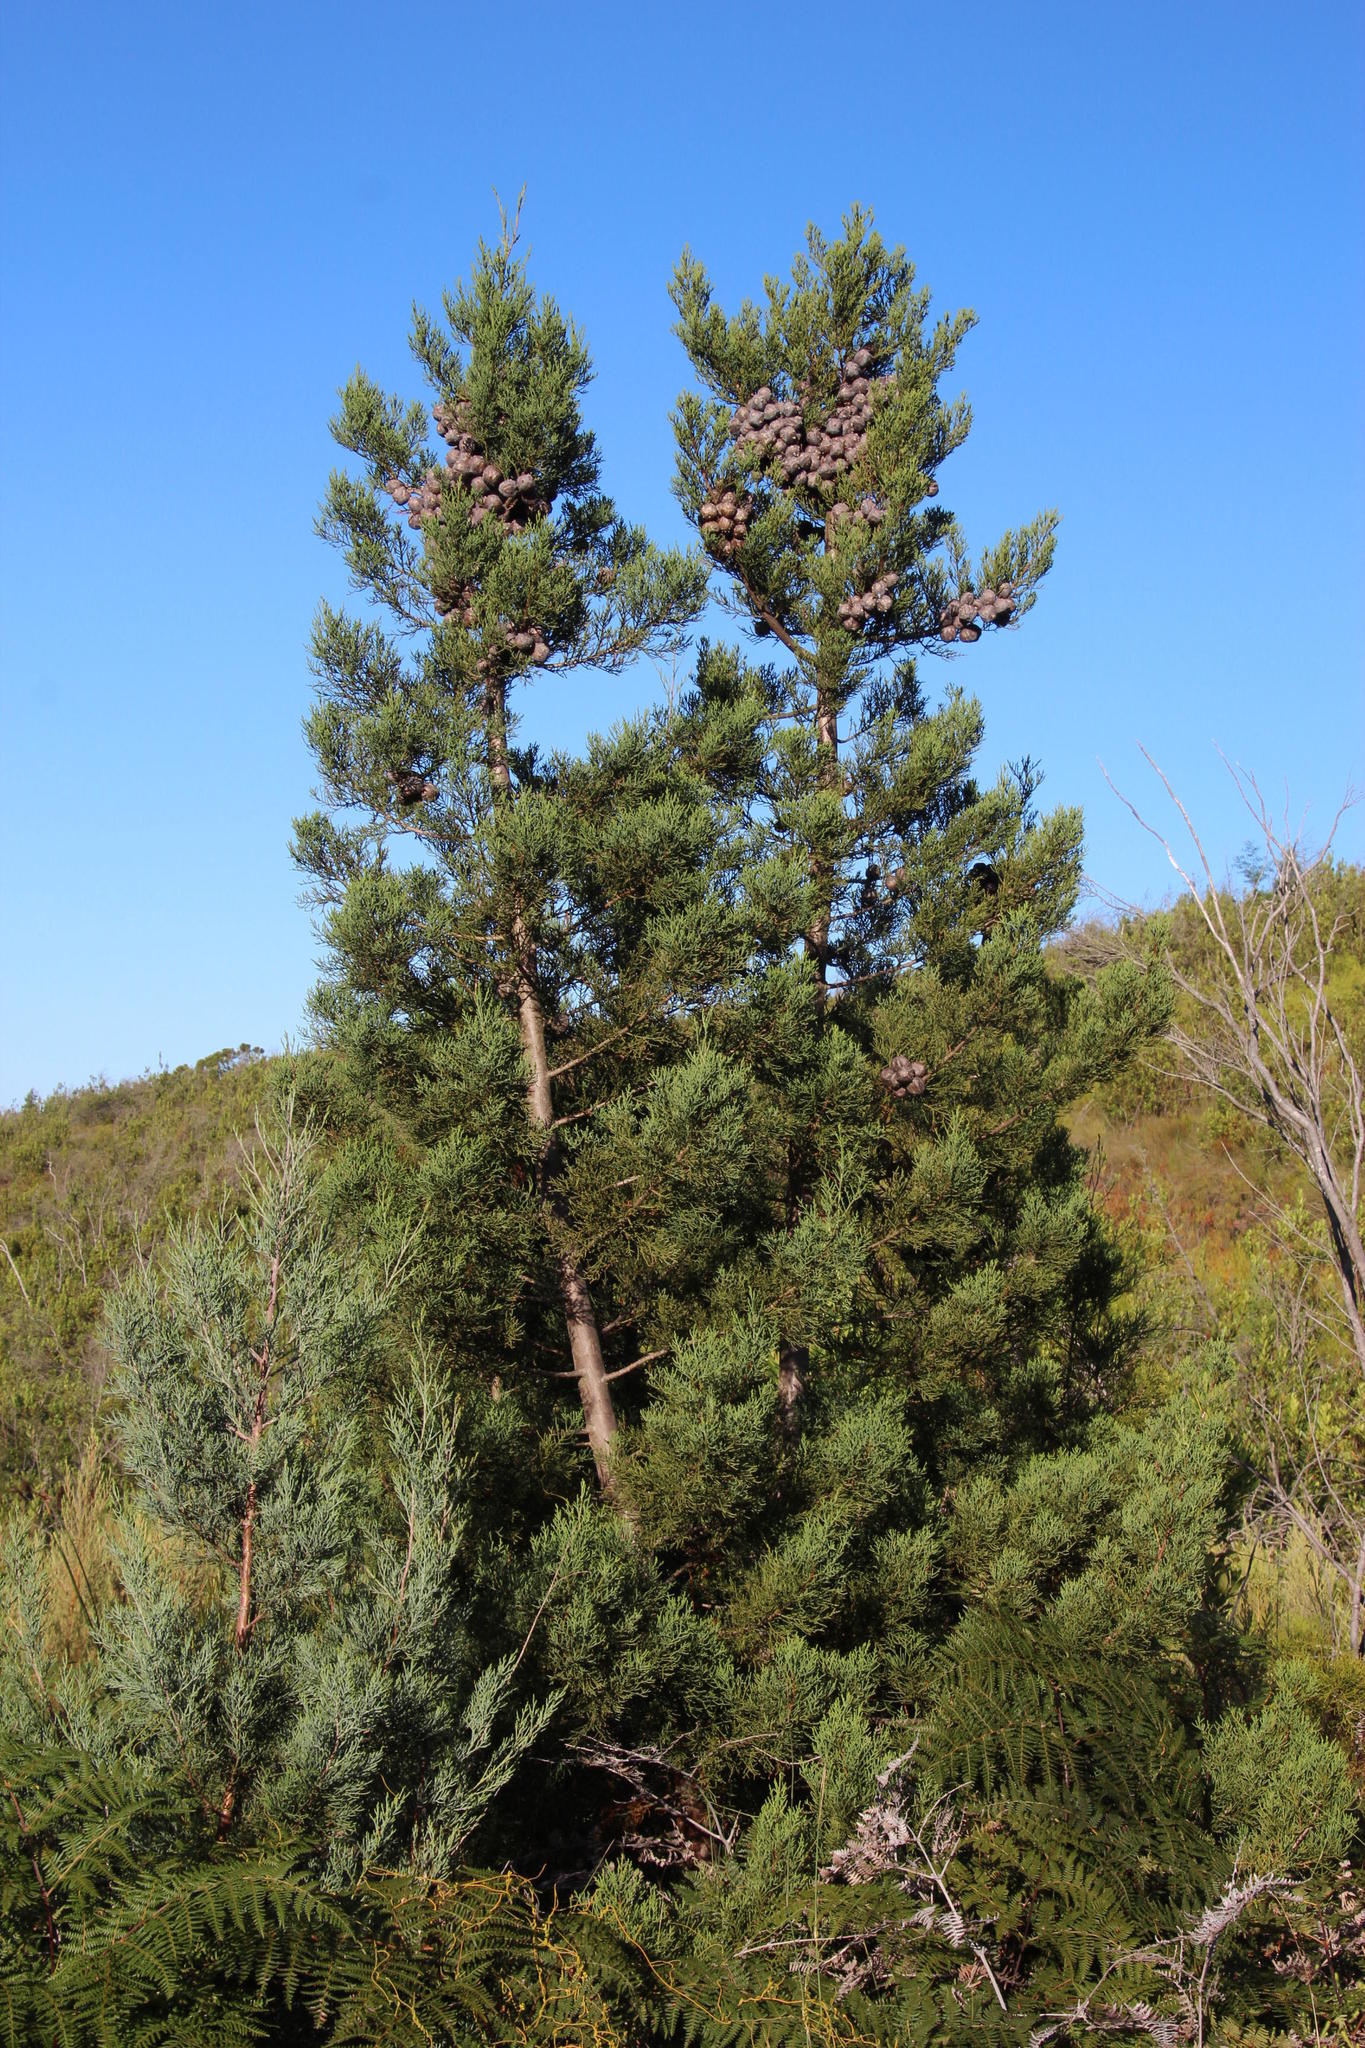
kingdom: Plantae
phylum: Tracheophyta
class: Pinopsida
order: Pinales
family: Cupressaceae
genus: Widdringtonia
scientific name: Widdringtonia nodiflora
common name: Cape cypress
